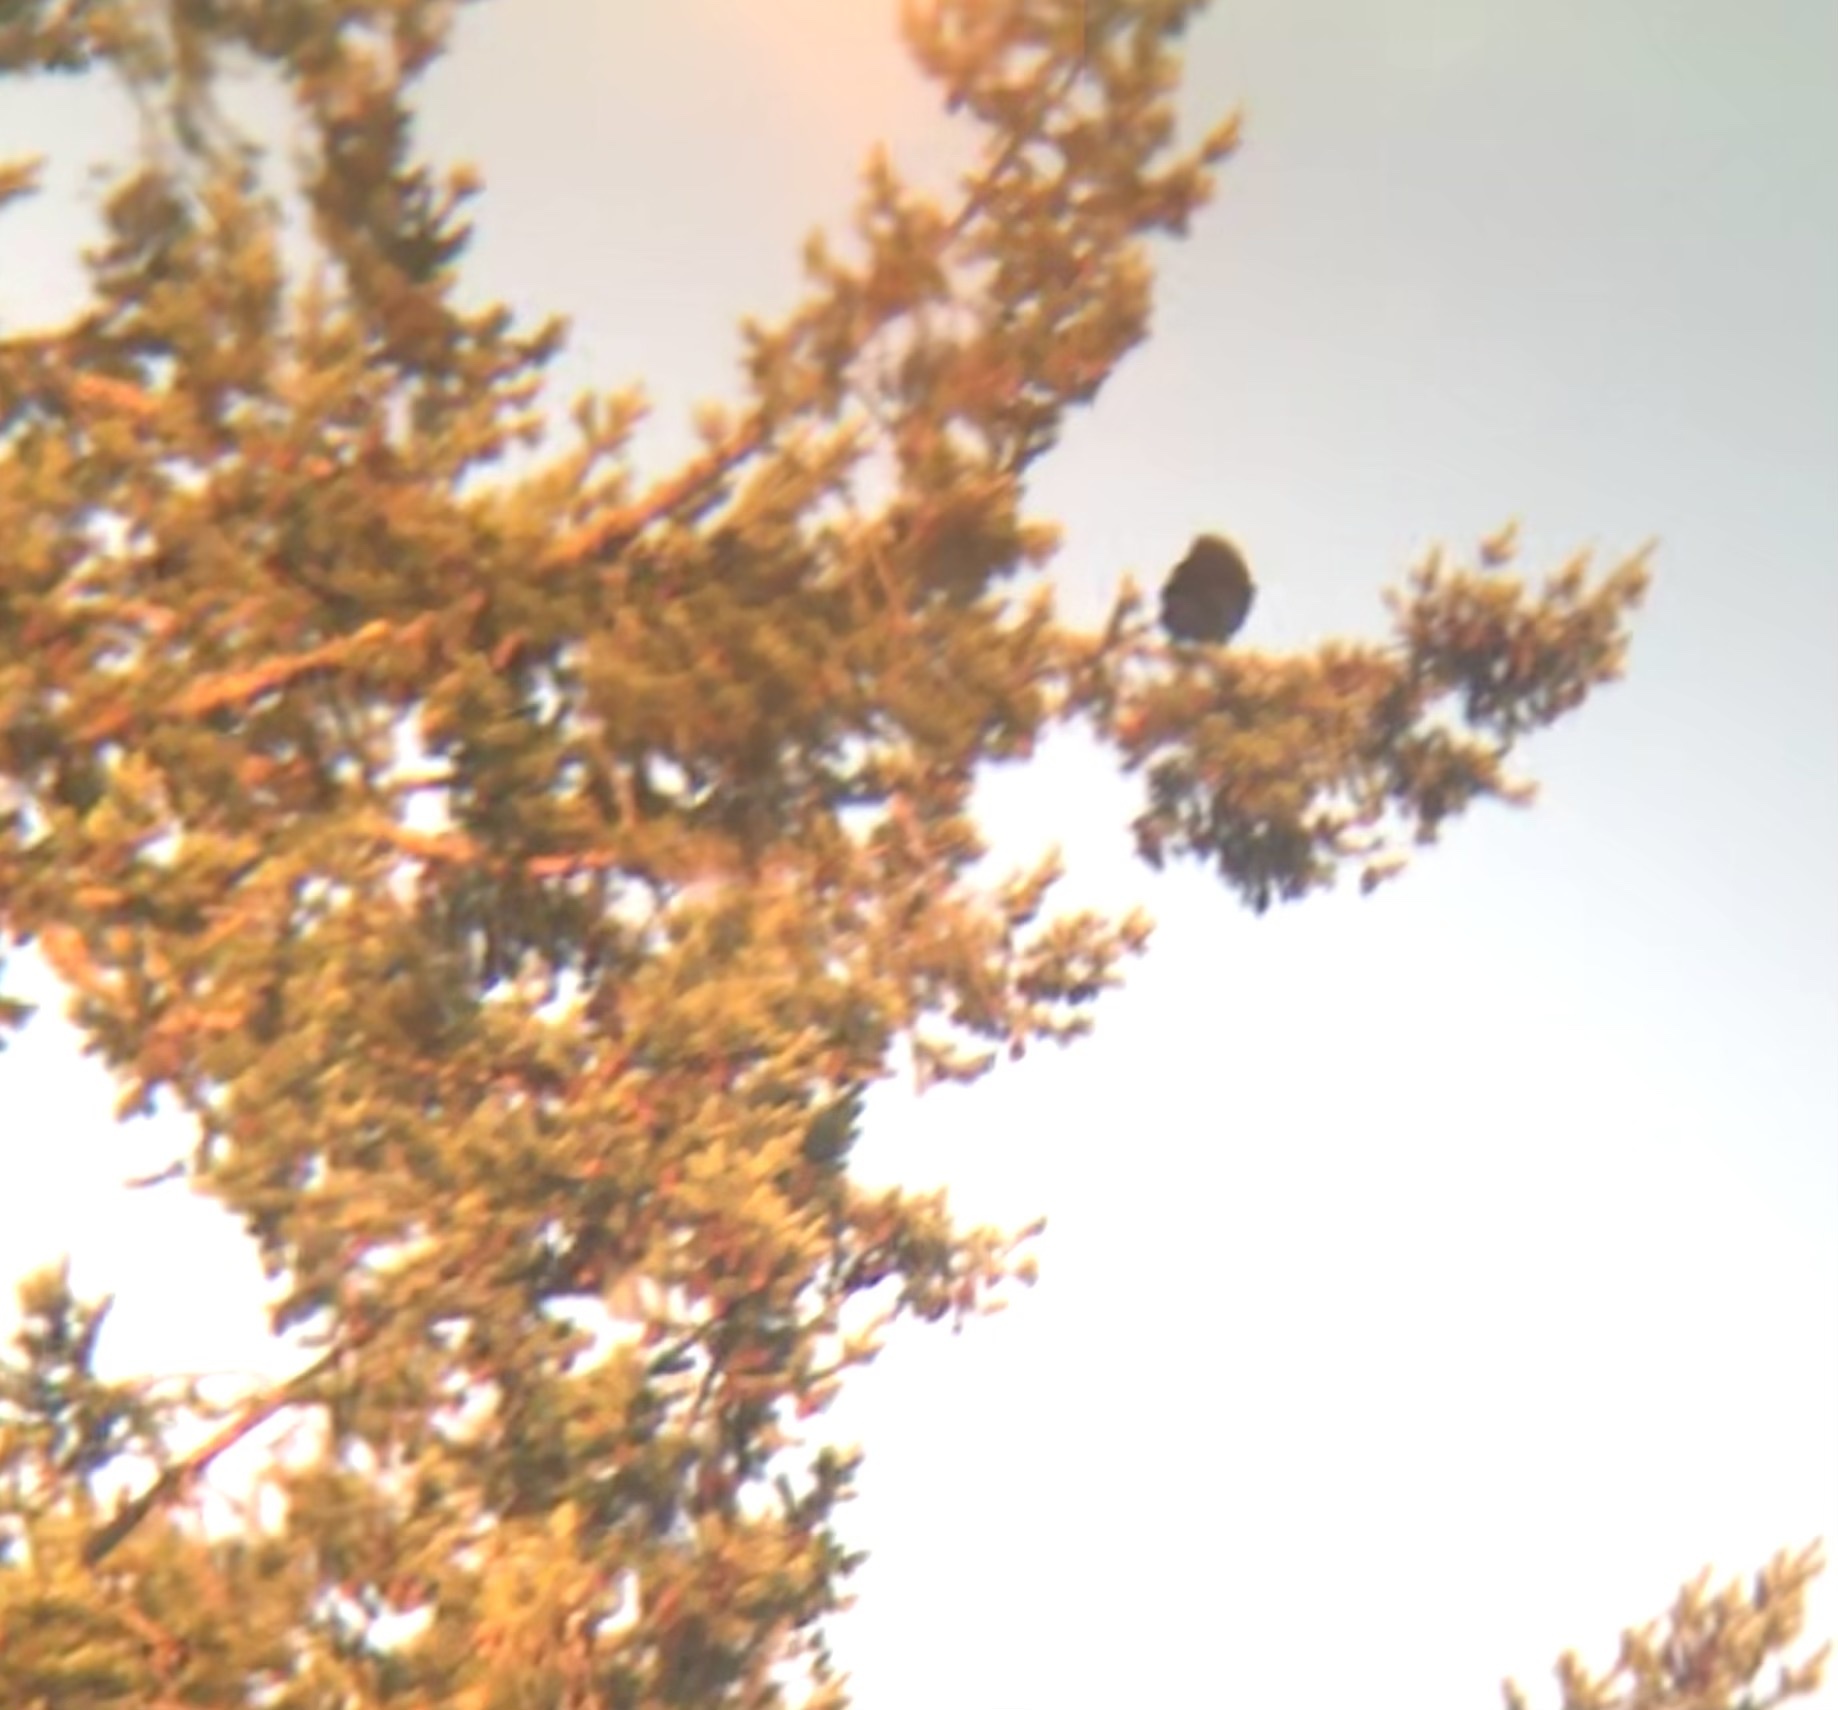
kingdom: Animalia
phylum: Chordata
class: Aves
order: Passeriformes
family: Corvidae
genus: Corvus
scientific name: Corvus corax
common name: Common raven
